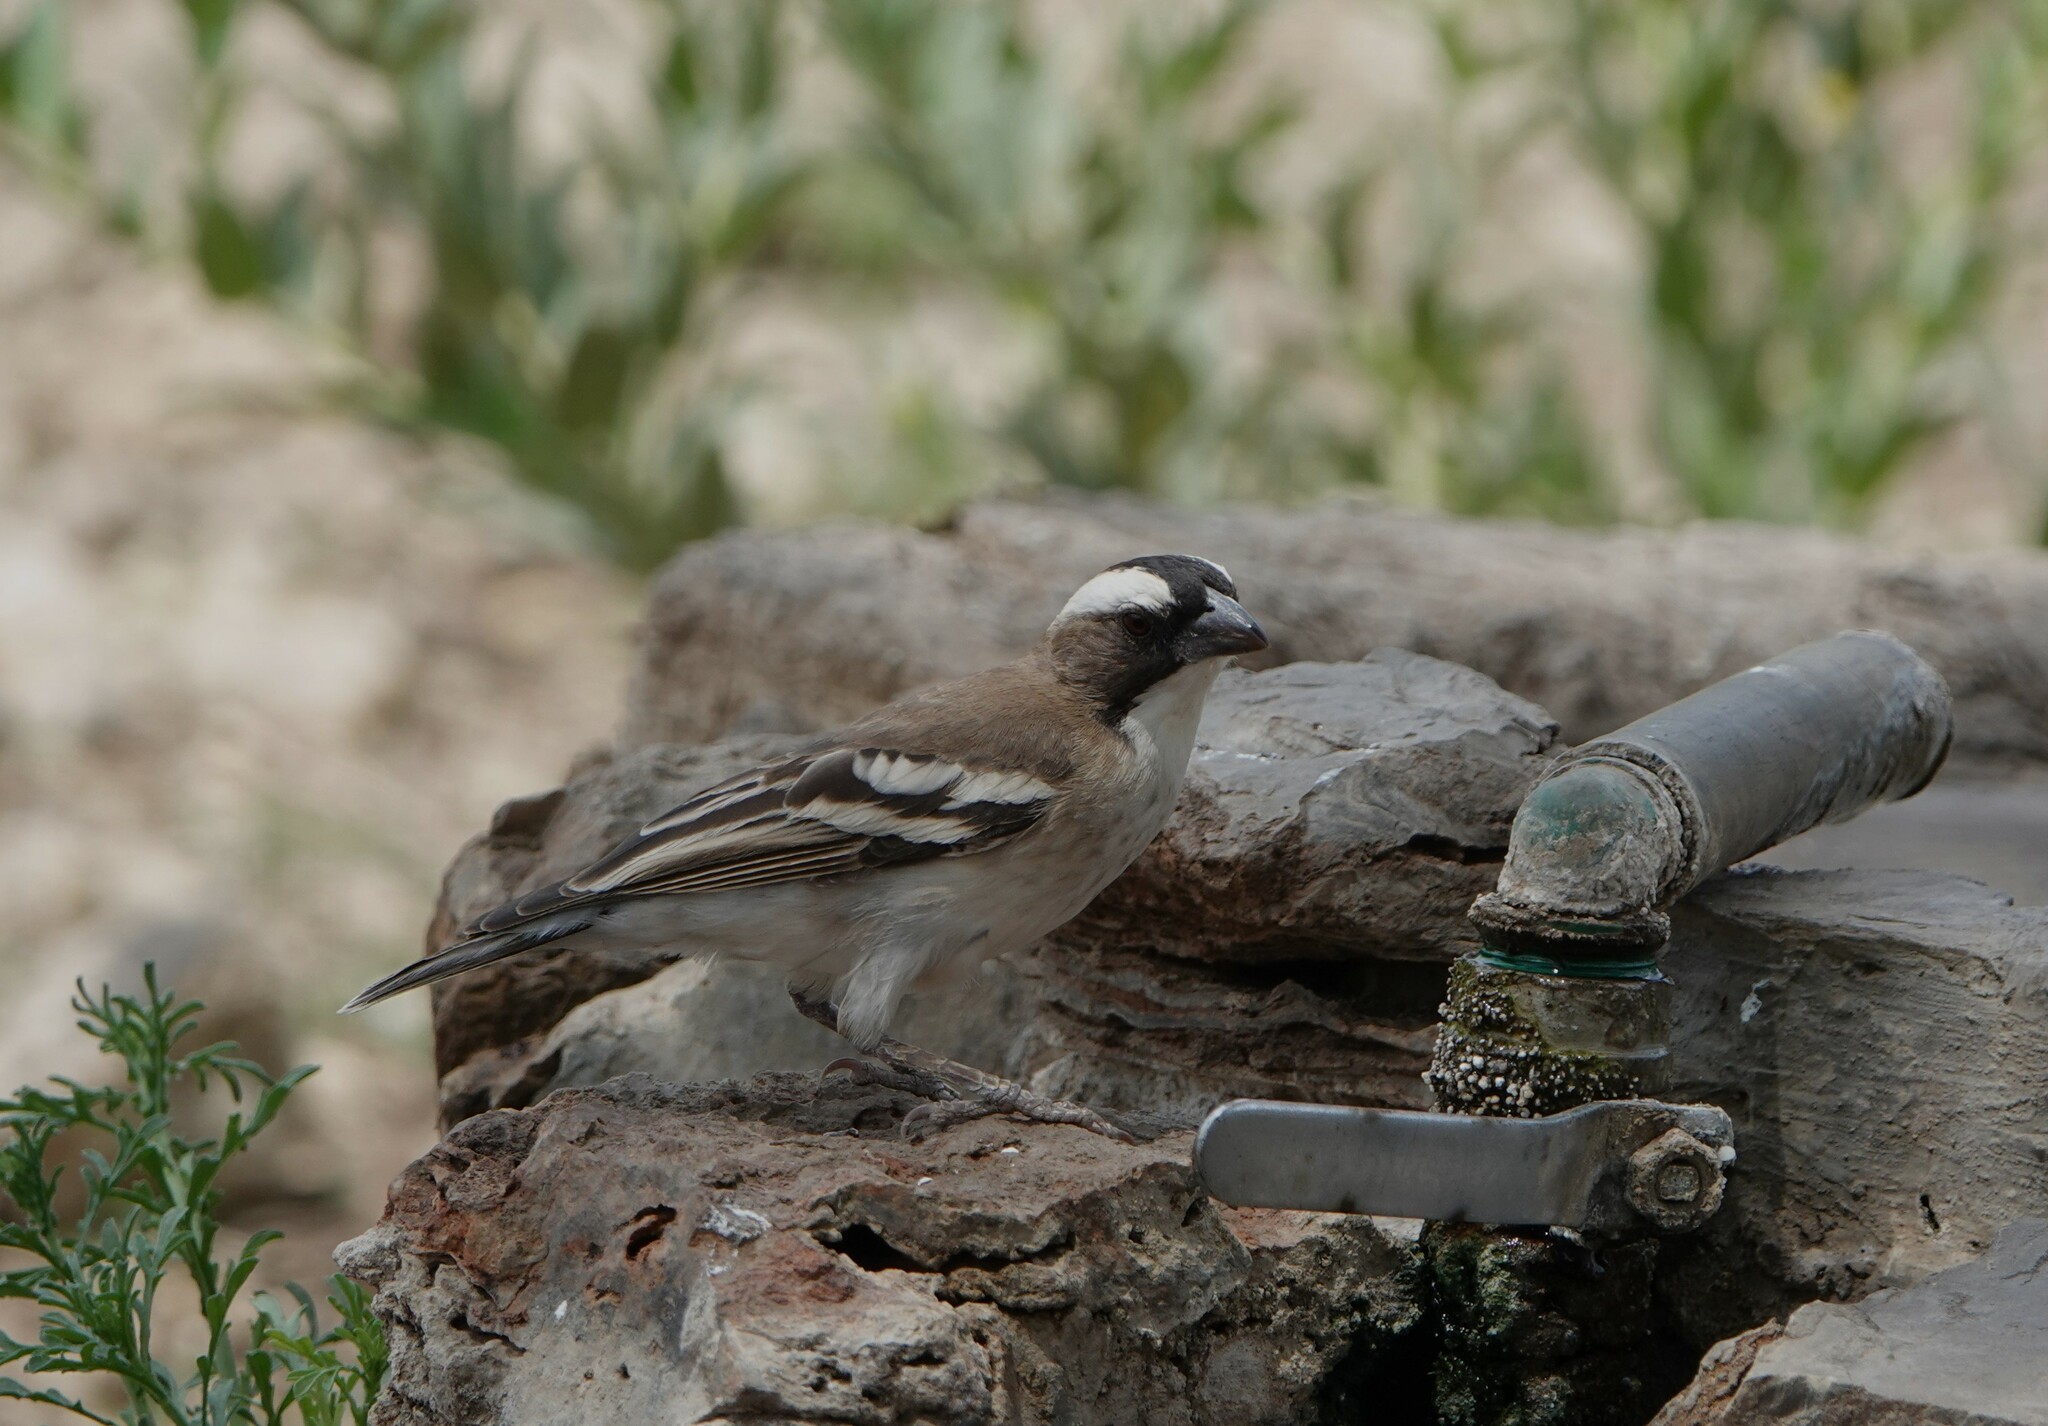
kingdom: Animalia
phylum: Chordata
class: Aves
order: Passeriformes
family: Passeridae
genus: Plocepasser
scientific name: Plocepasser mahali
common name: White-browed sparrow-weaver
